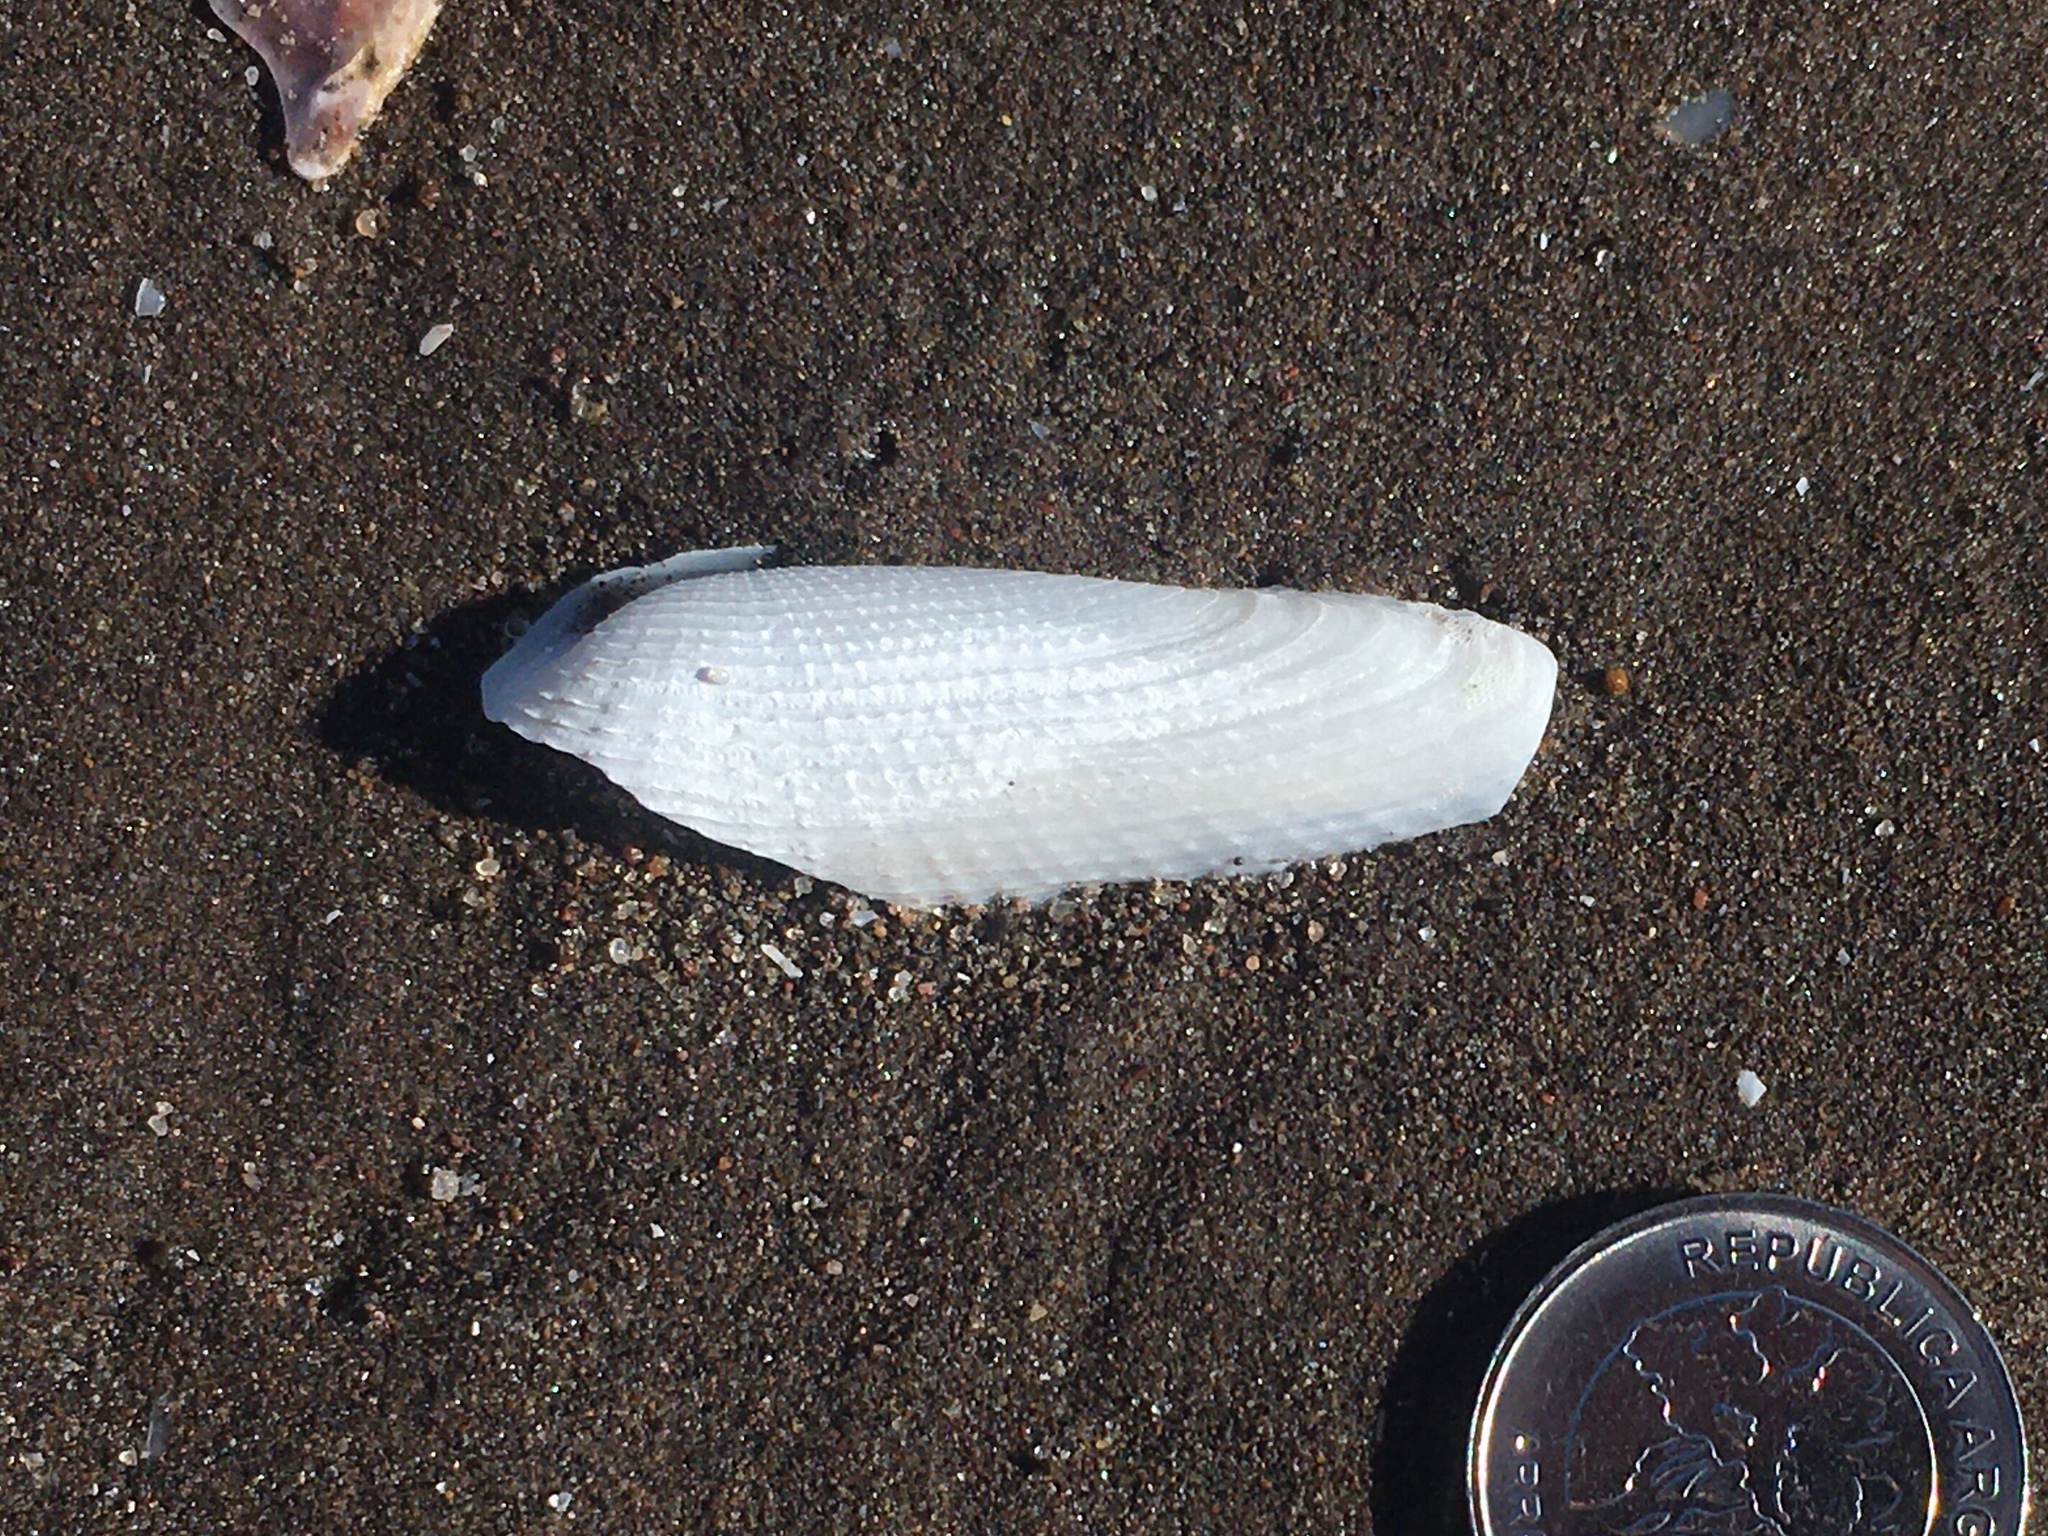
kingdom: Animalia
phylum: Mollusca
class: Bivalvia
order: Myida
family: Pholadidae
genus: Cyrtopleura
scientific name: Cyrtopleura lanceolata
